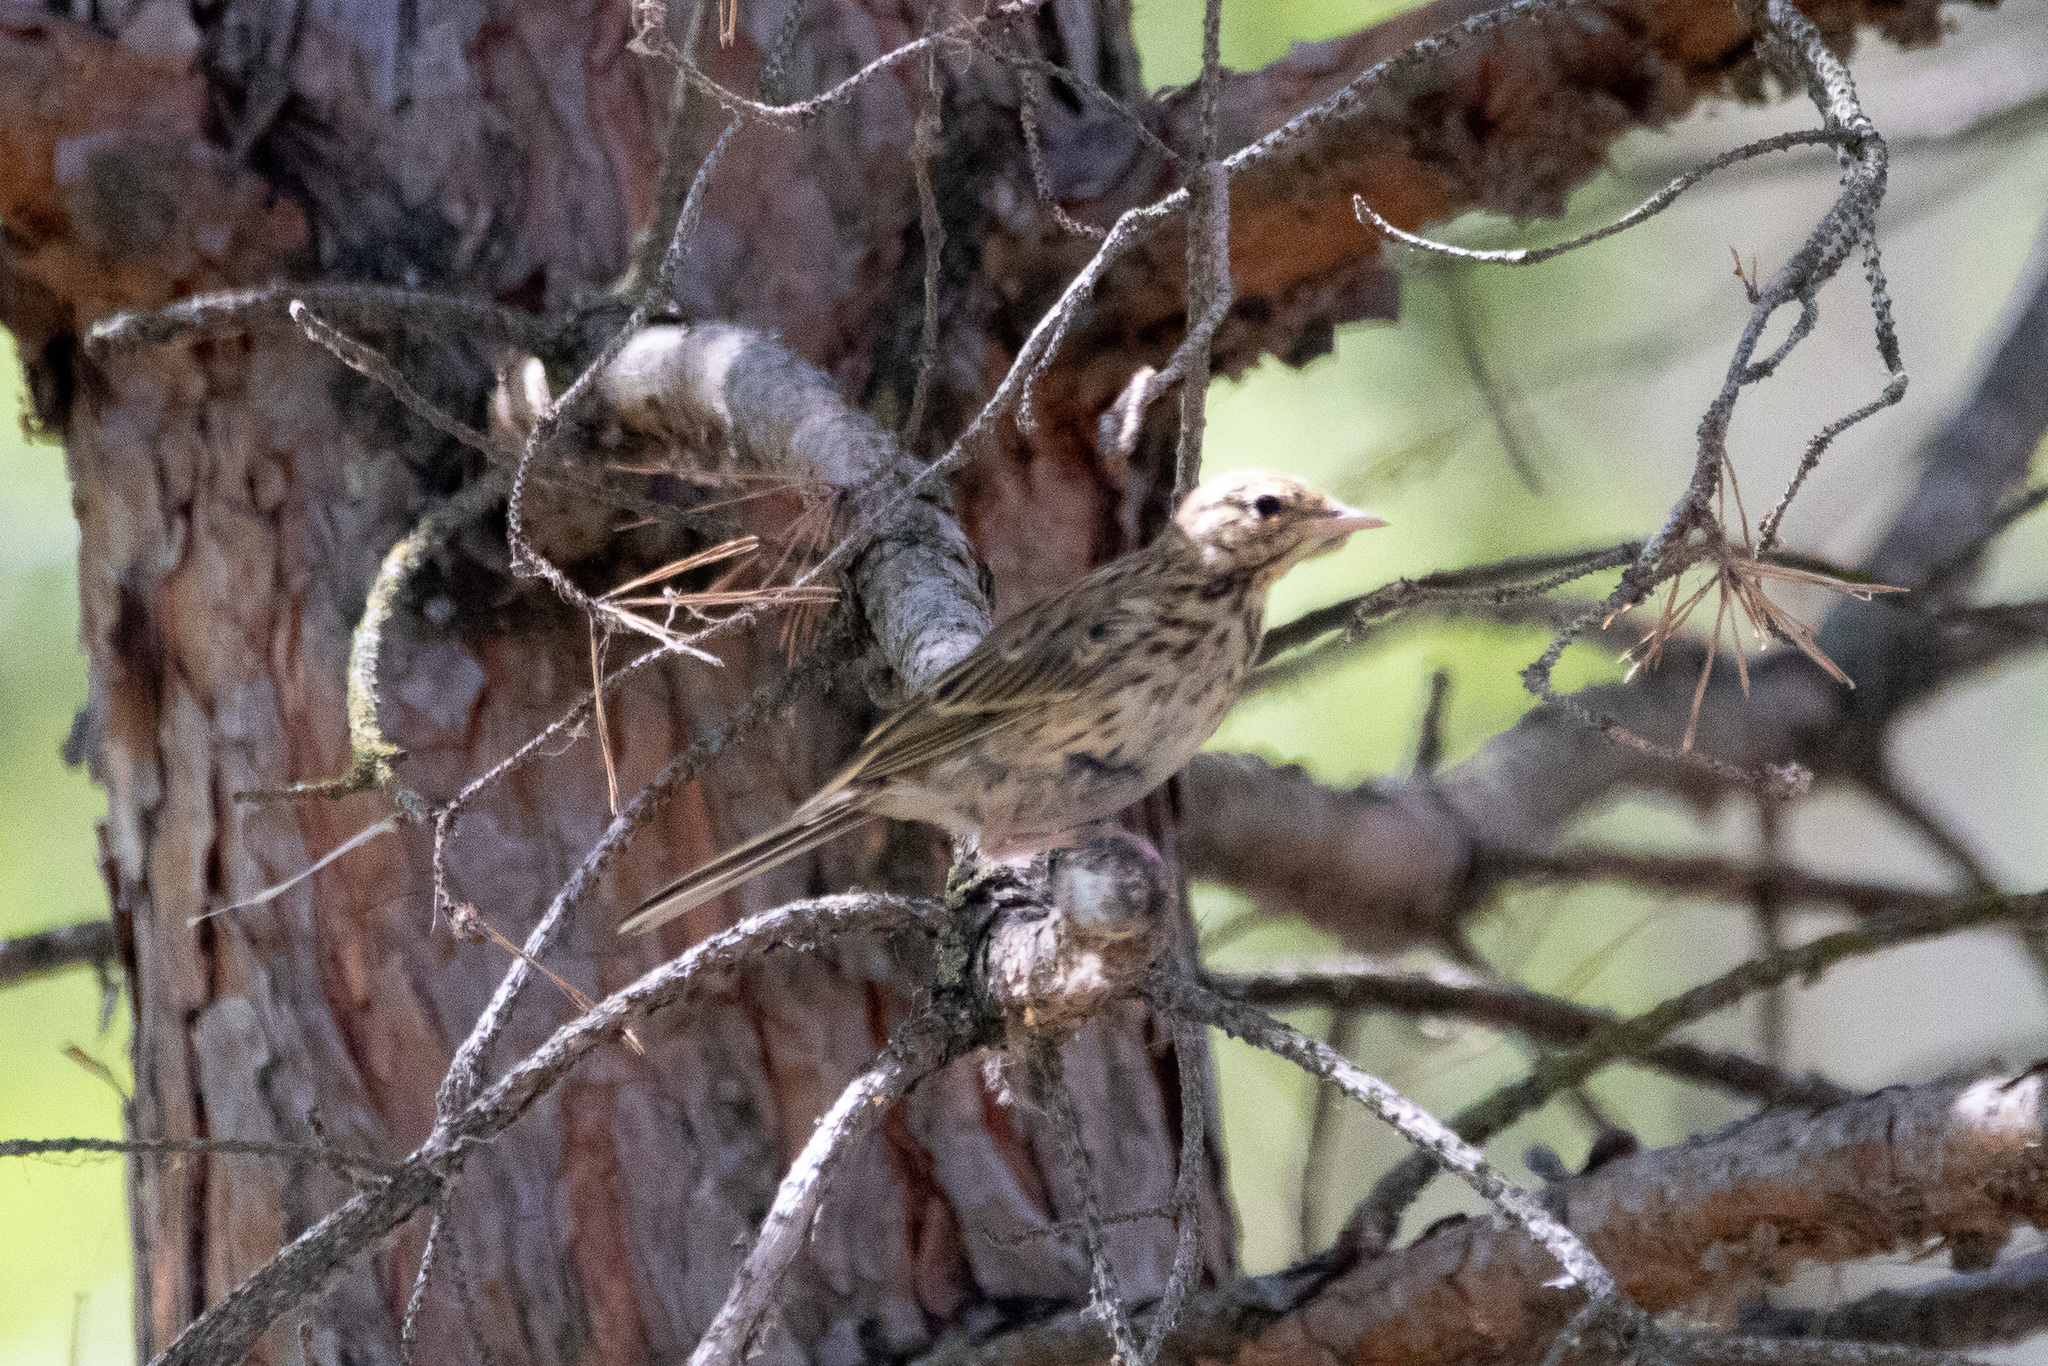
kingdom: Animalia
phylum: Chordata
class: Aves
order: Passeriformes
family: Motacillidae
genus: Anthus
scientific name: Anthus trivialis
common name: Tree pipit
